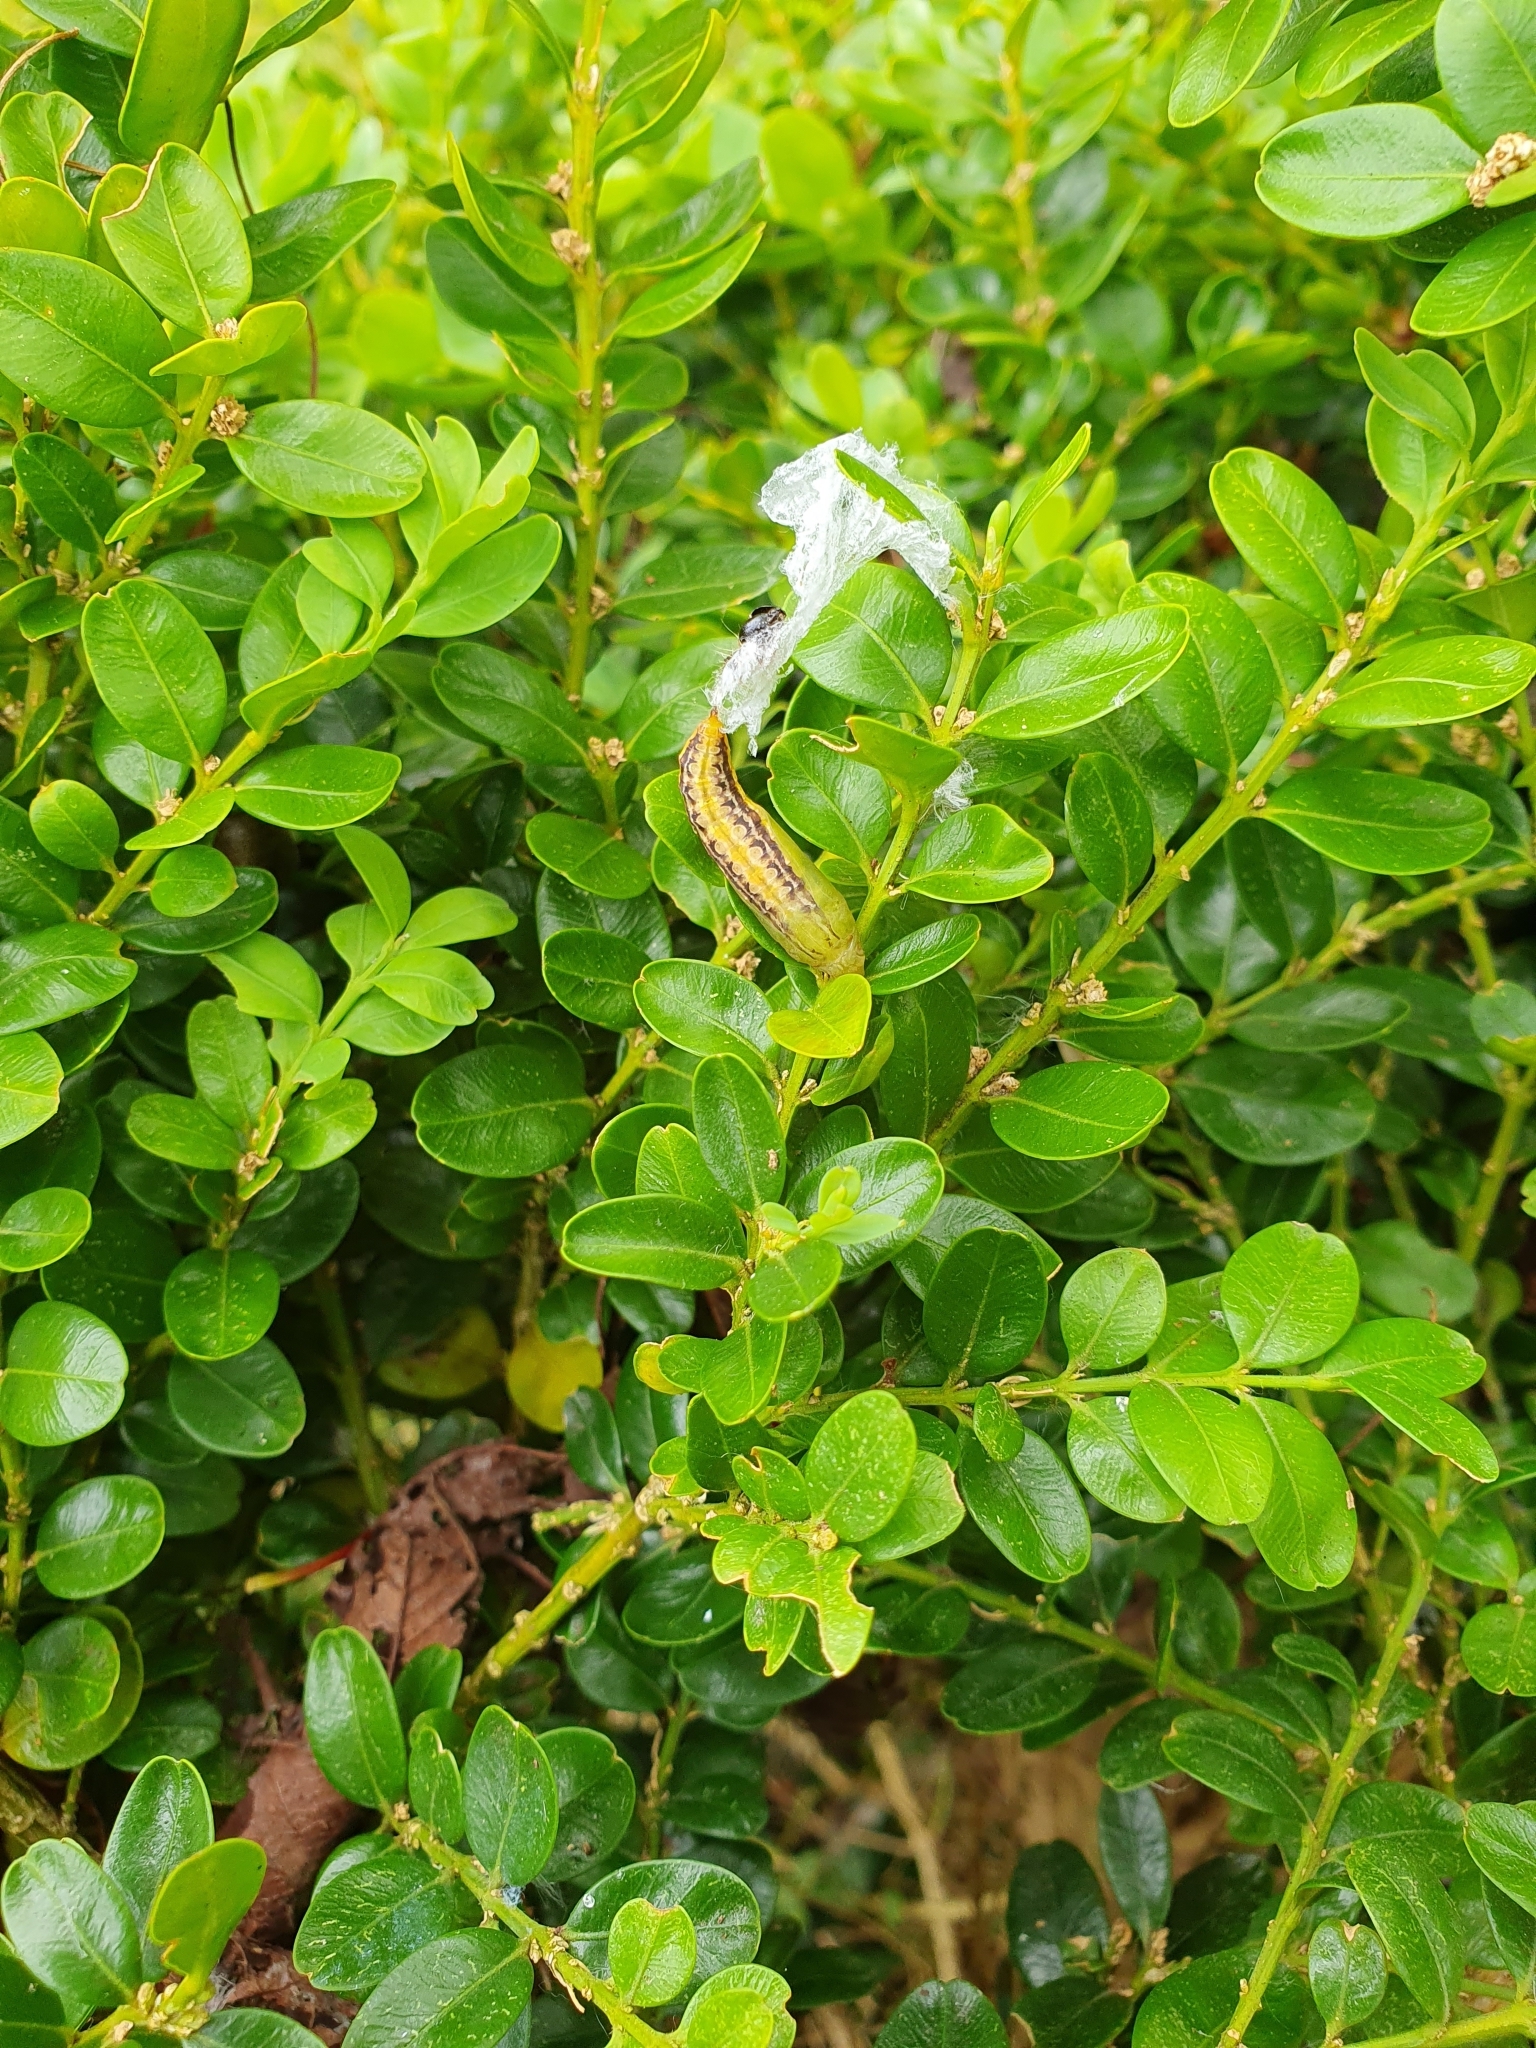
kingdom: Animalia
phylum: Arthropoda
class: Insecta
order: Lepidoptera
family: Crambidae
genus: Cydalima
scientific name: Cydalima perspectalis
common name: Box tree moth
